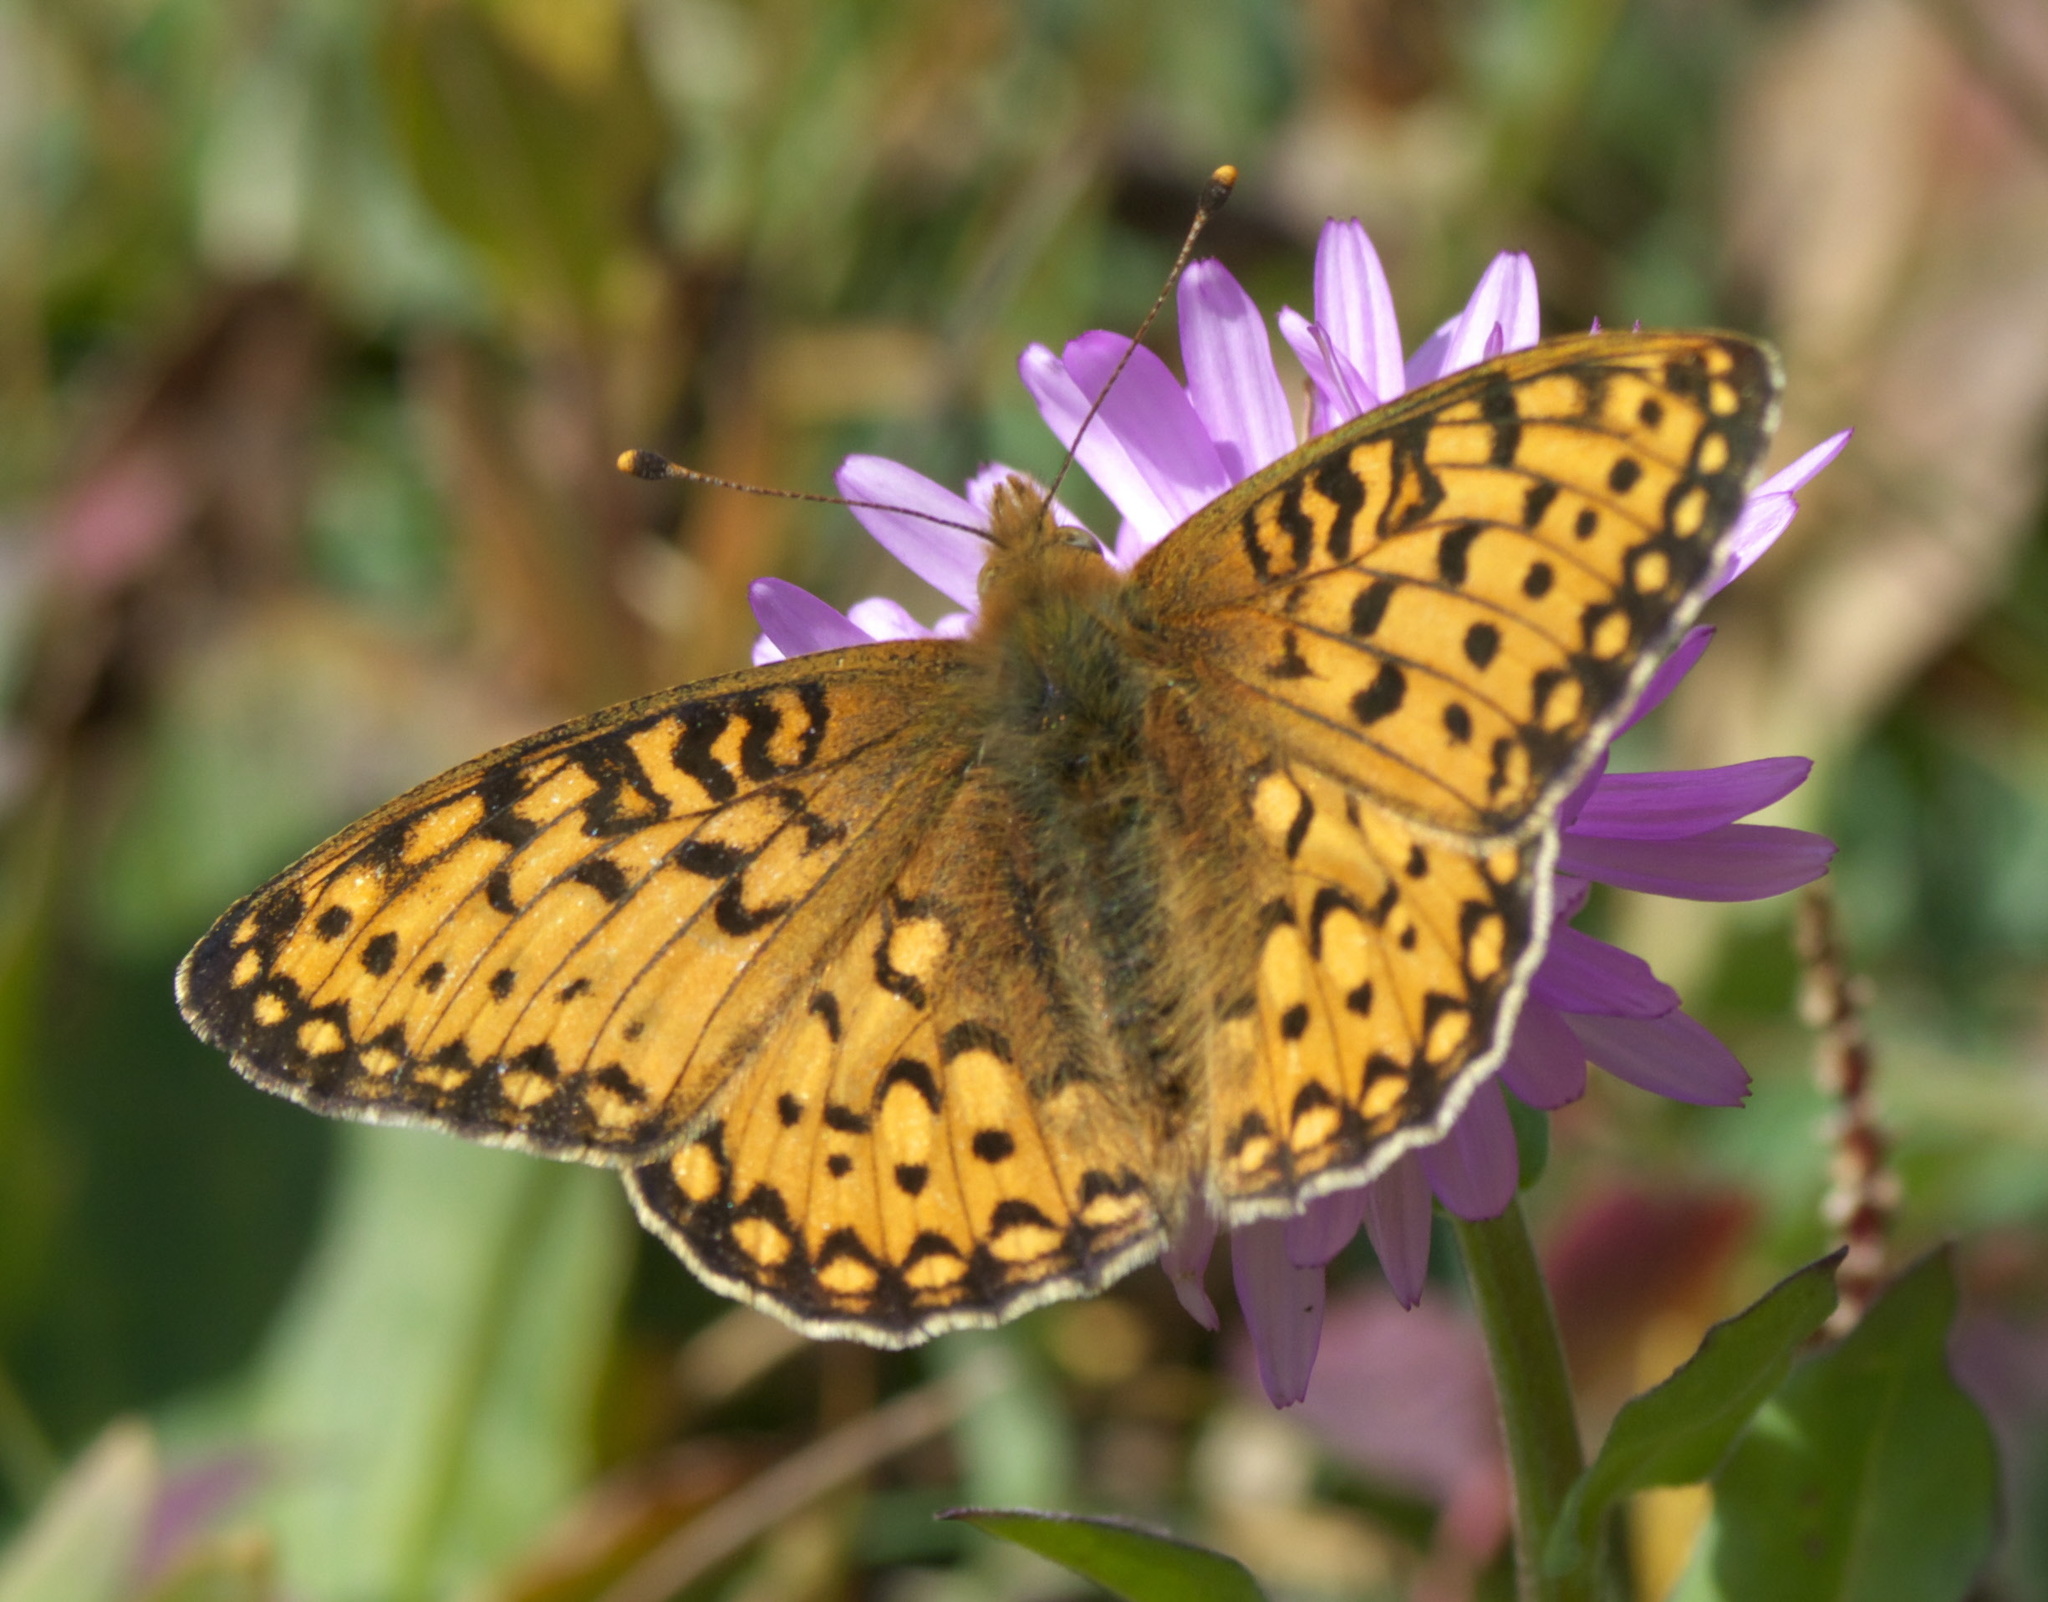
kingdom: Animalia
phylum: Arthropoda
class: Insecta
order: Lepidoptera
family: Nymphalidae
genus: Speyeria
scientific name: Speyeria mormonia
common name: Mormon fritillary
